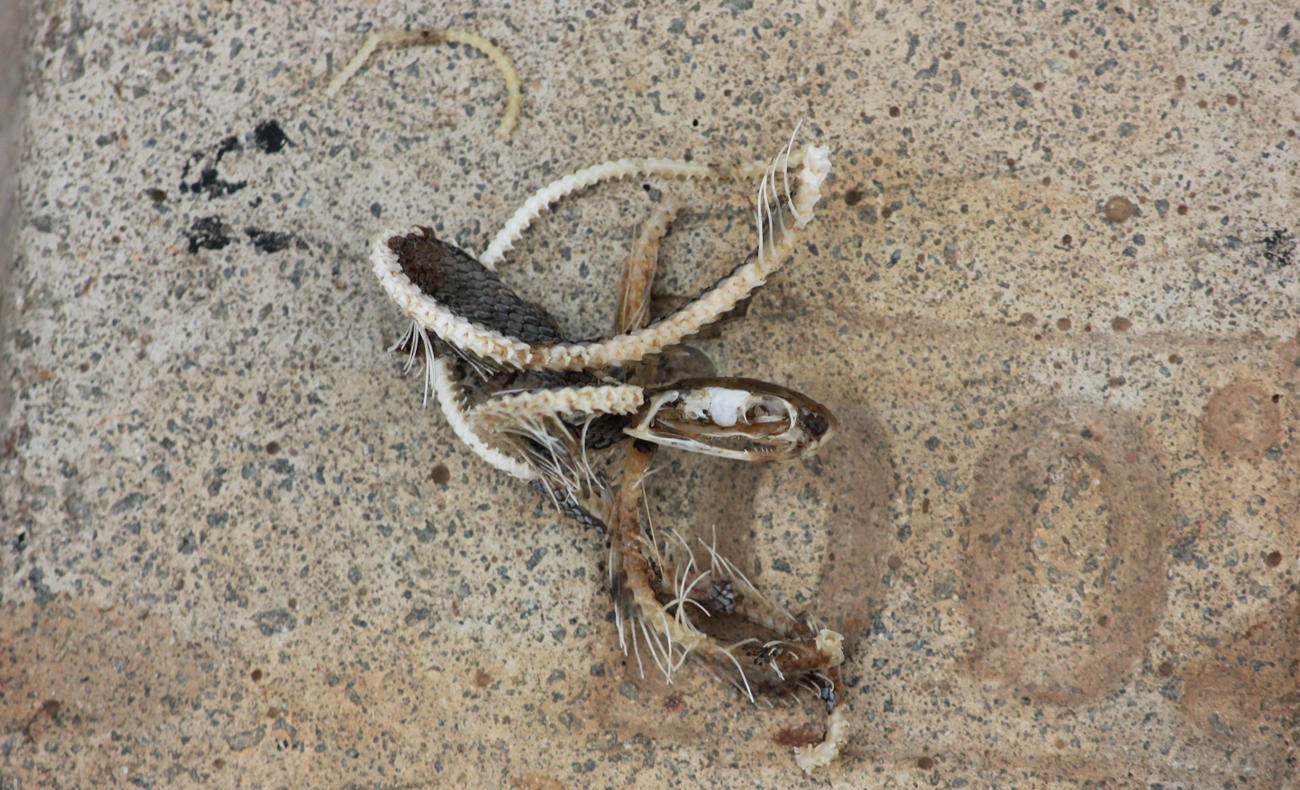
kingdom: Animalia
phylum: Chordata
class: Squamata
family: Elapidae
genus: Naja
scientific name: Naja mossambica
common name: Mozambique spitting cobra
